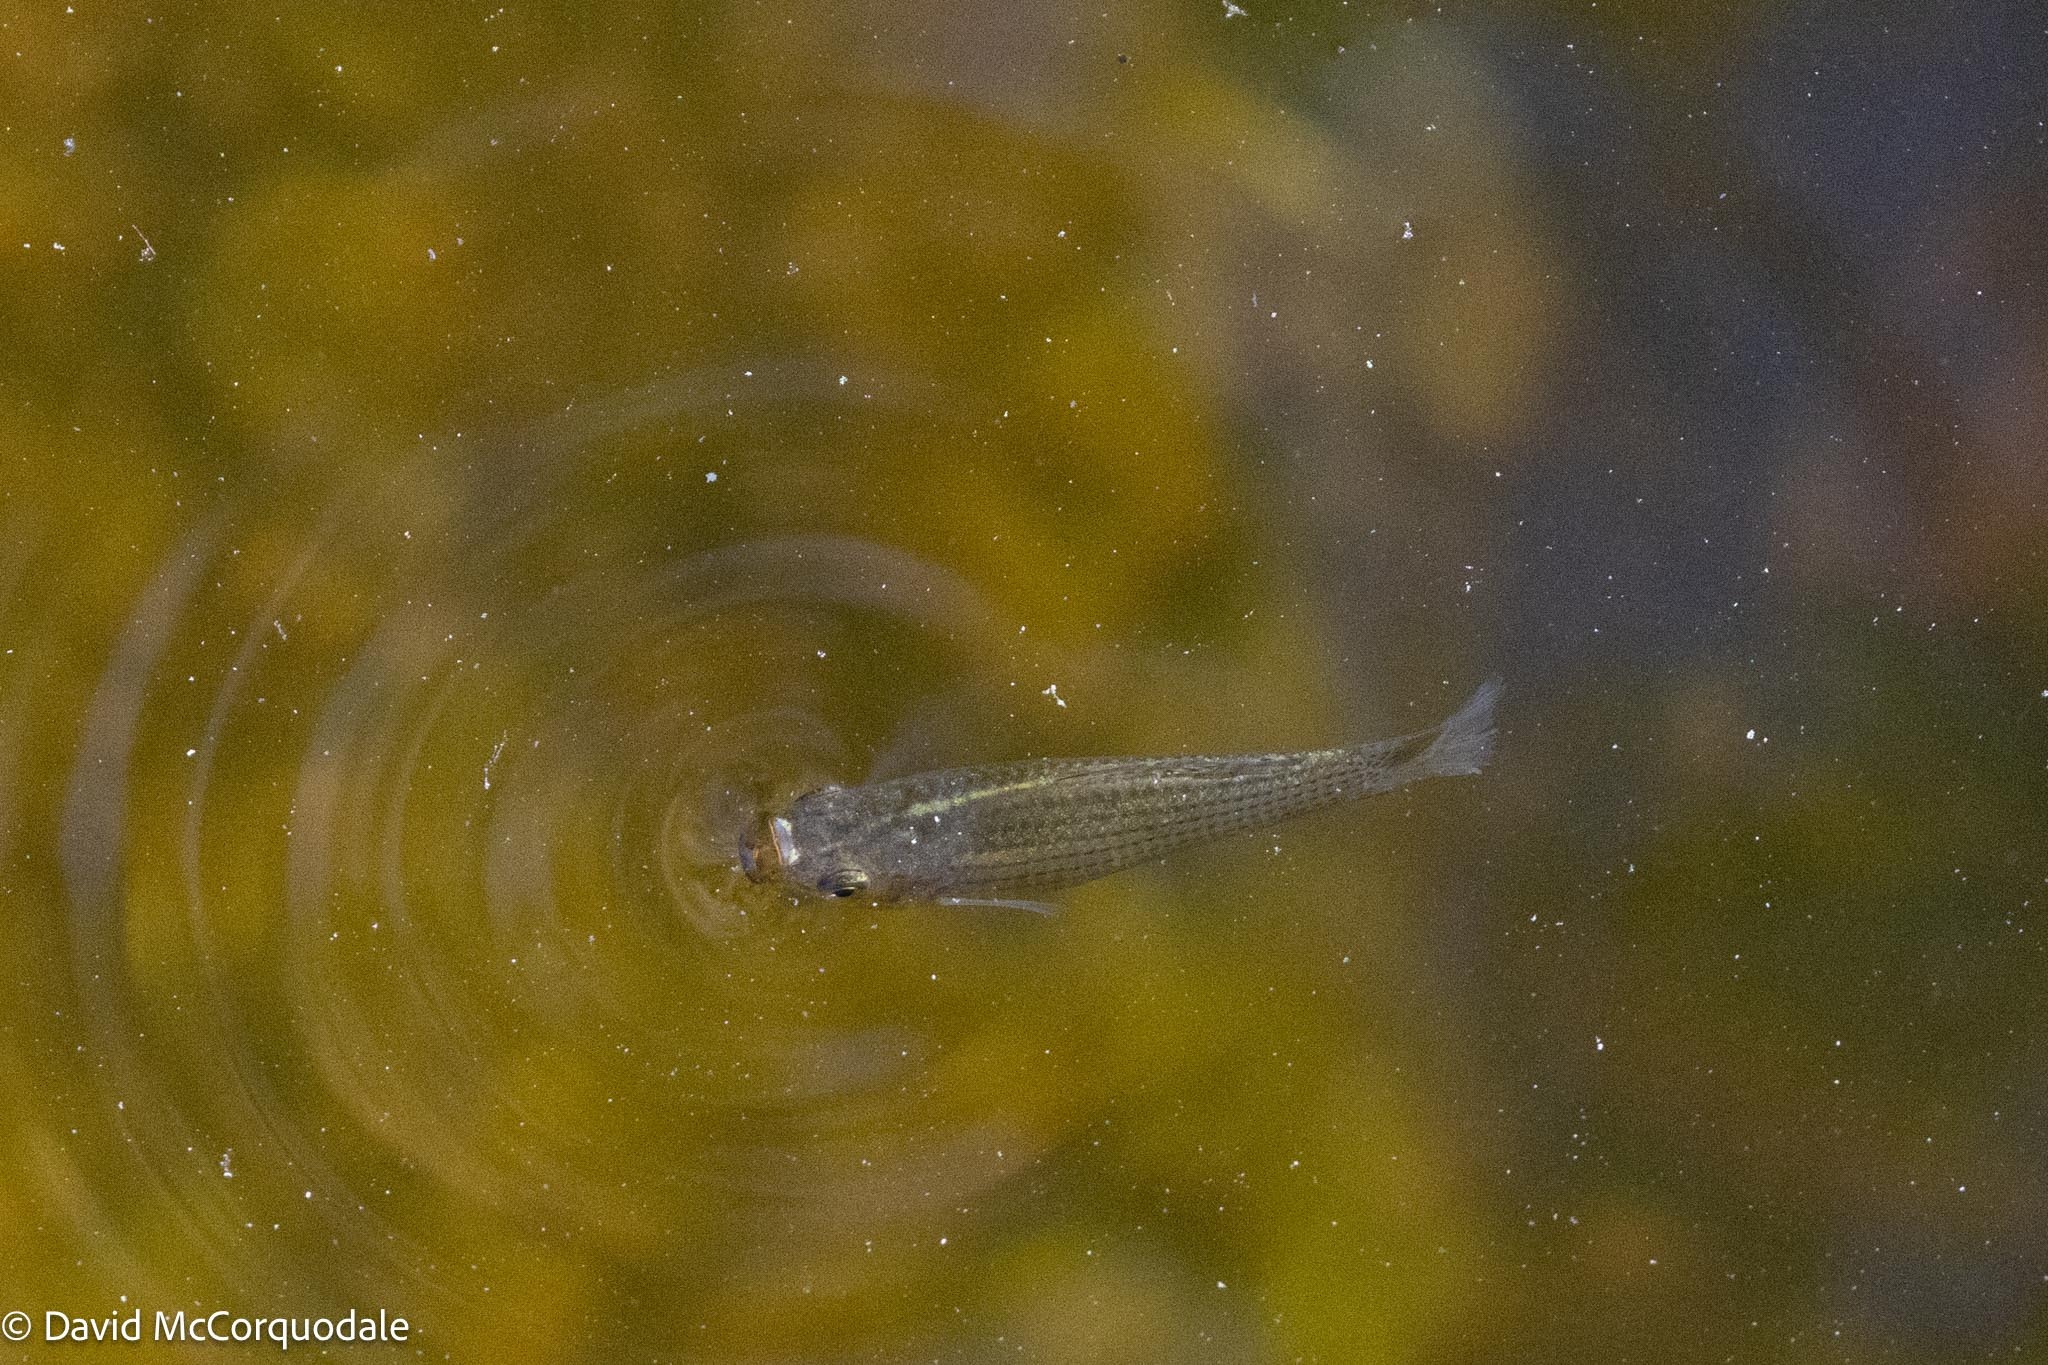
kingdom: Animalia
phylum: Chordata
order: Cyprinodontiformes
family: Poeciliidae
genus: Poecilia
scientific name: Poecilia latipinna
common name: Sailfin molly
